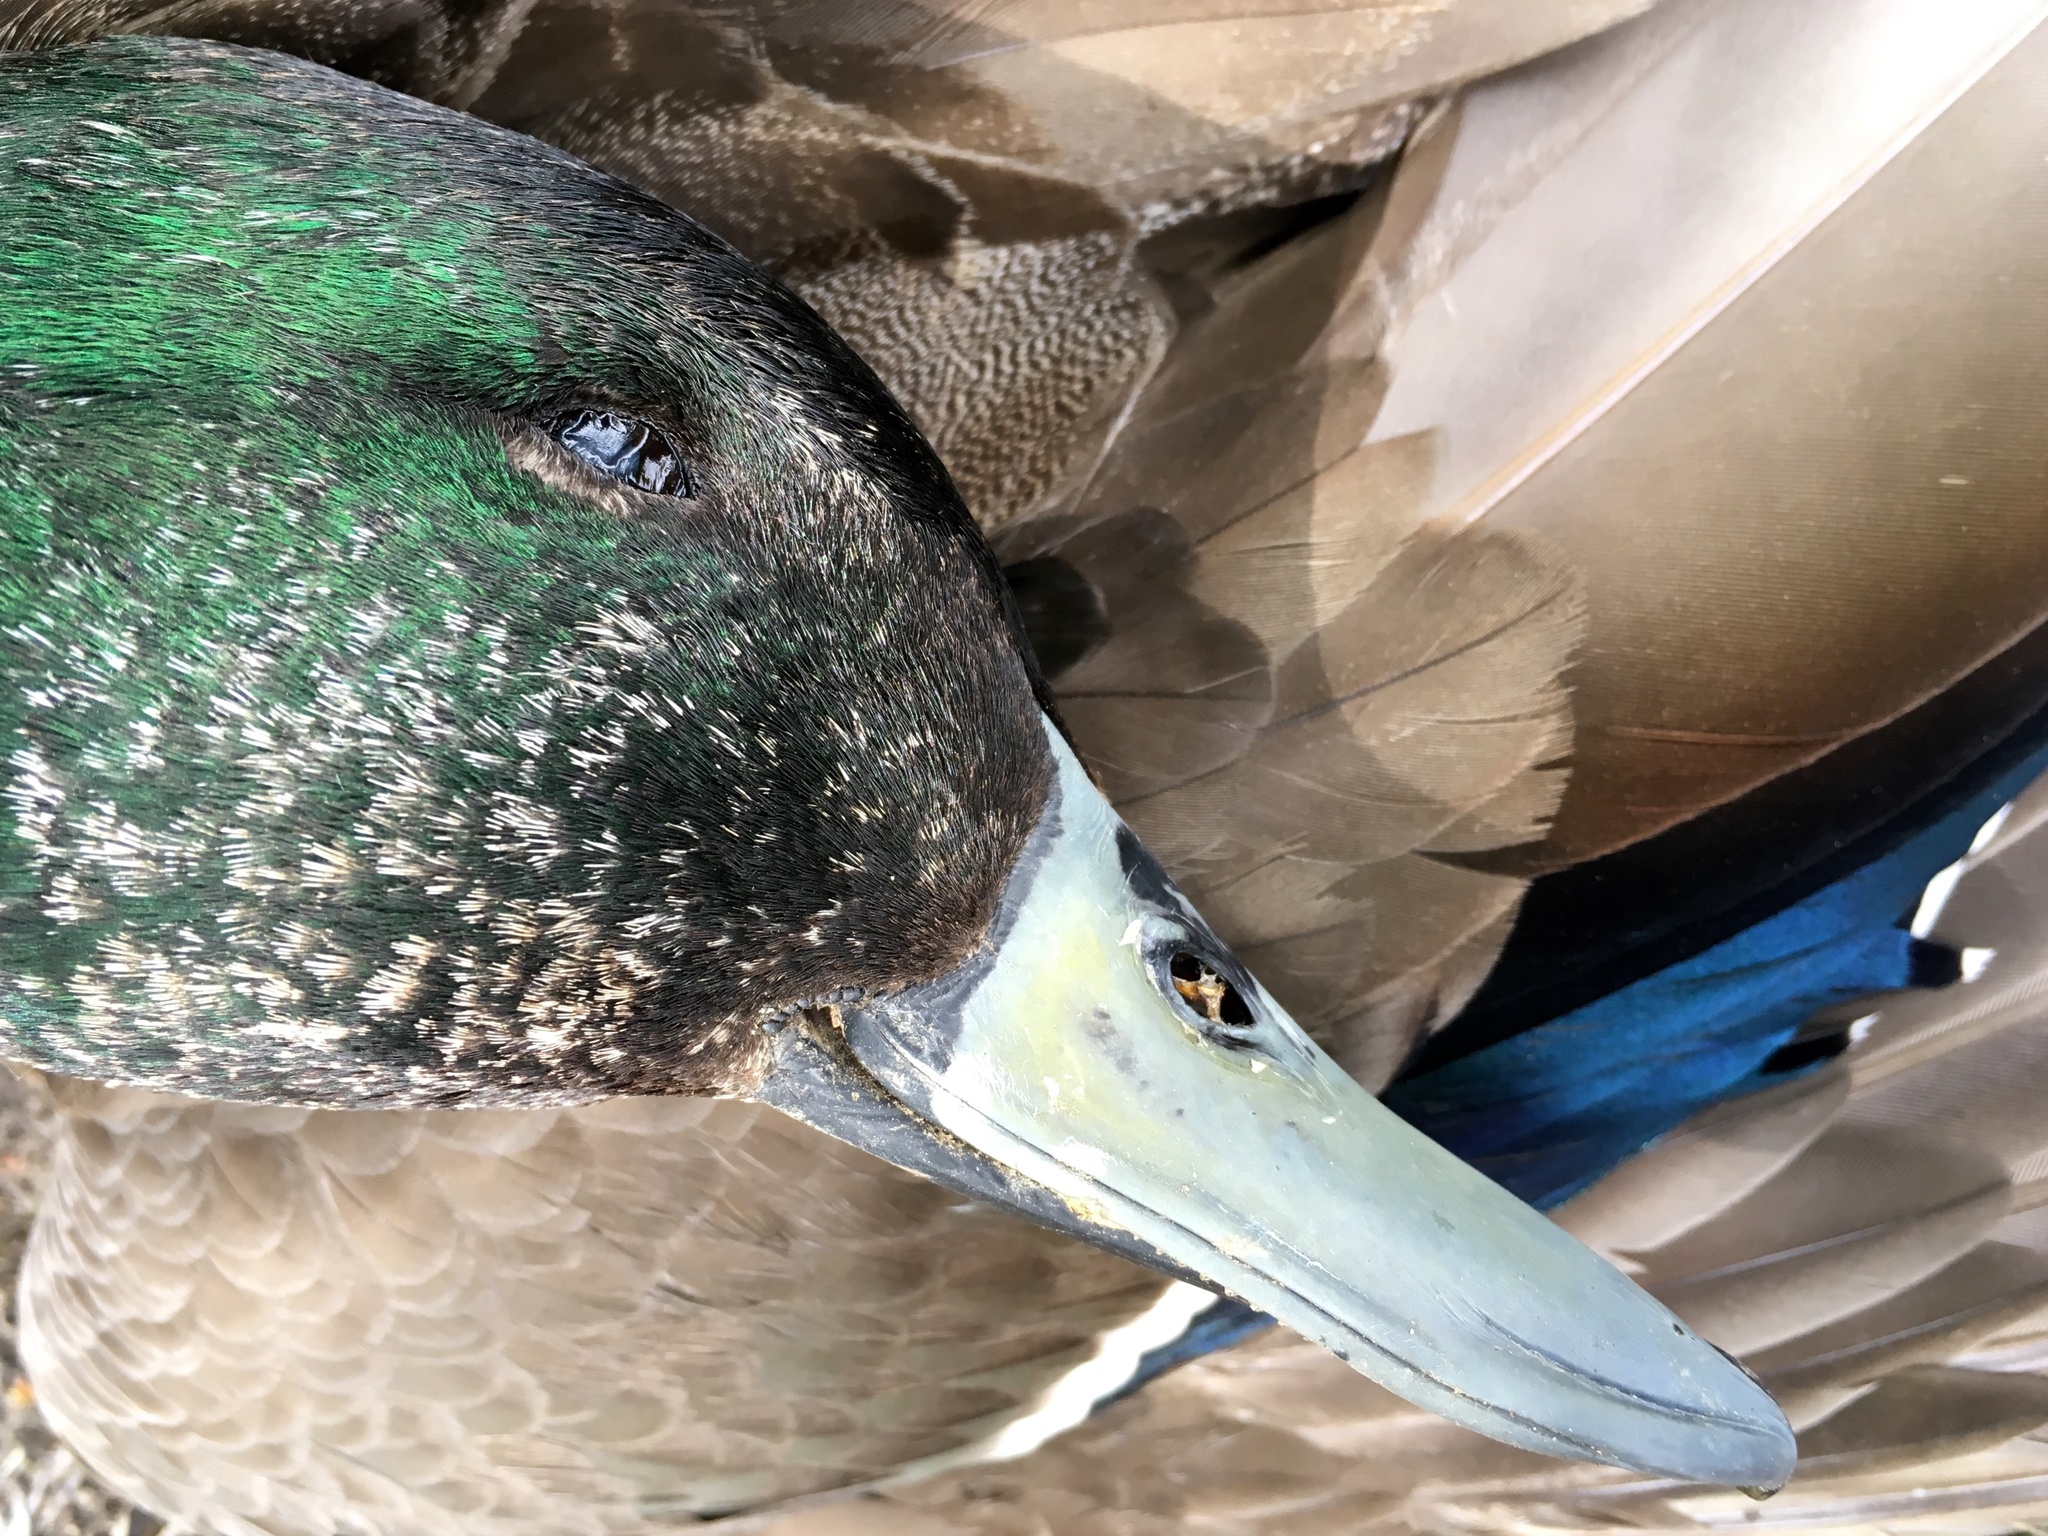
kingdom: Animalia
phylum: Chordata
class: Aves
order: Anseriformes
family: Anatidae
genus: Anas
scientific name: Anas platyrhynchos
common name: Mallard
